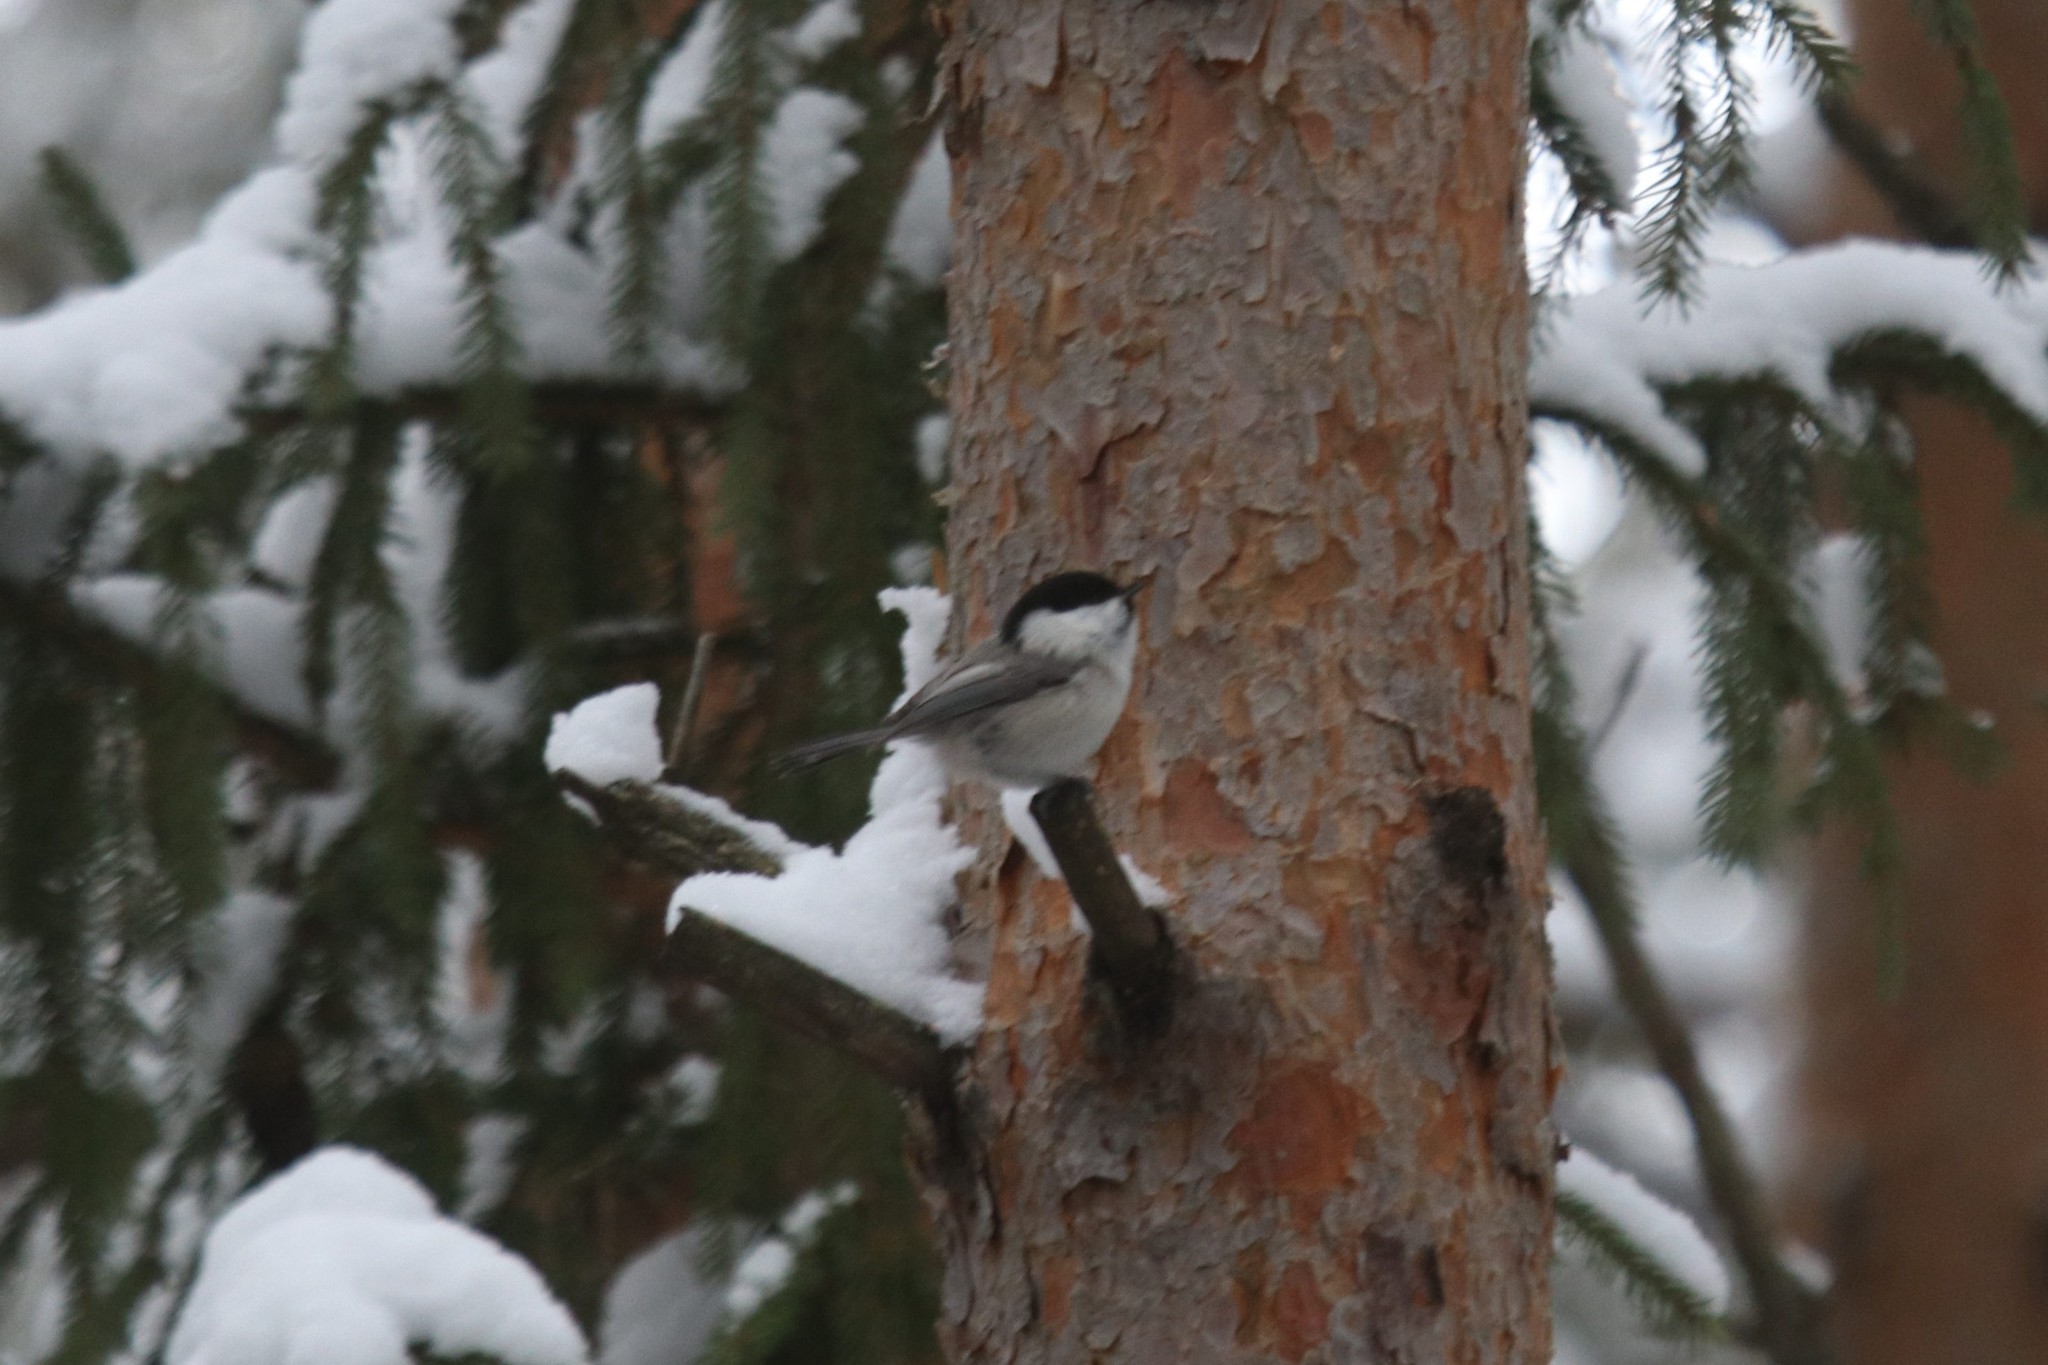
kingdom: Animalia
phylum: Chordata
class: Aves
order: Passeriformes
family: Paridae
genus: Poecile
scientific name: Poecile montanus
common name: Willow tit
